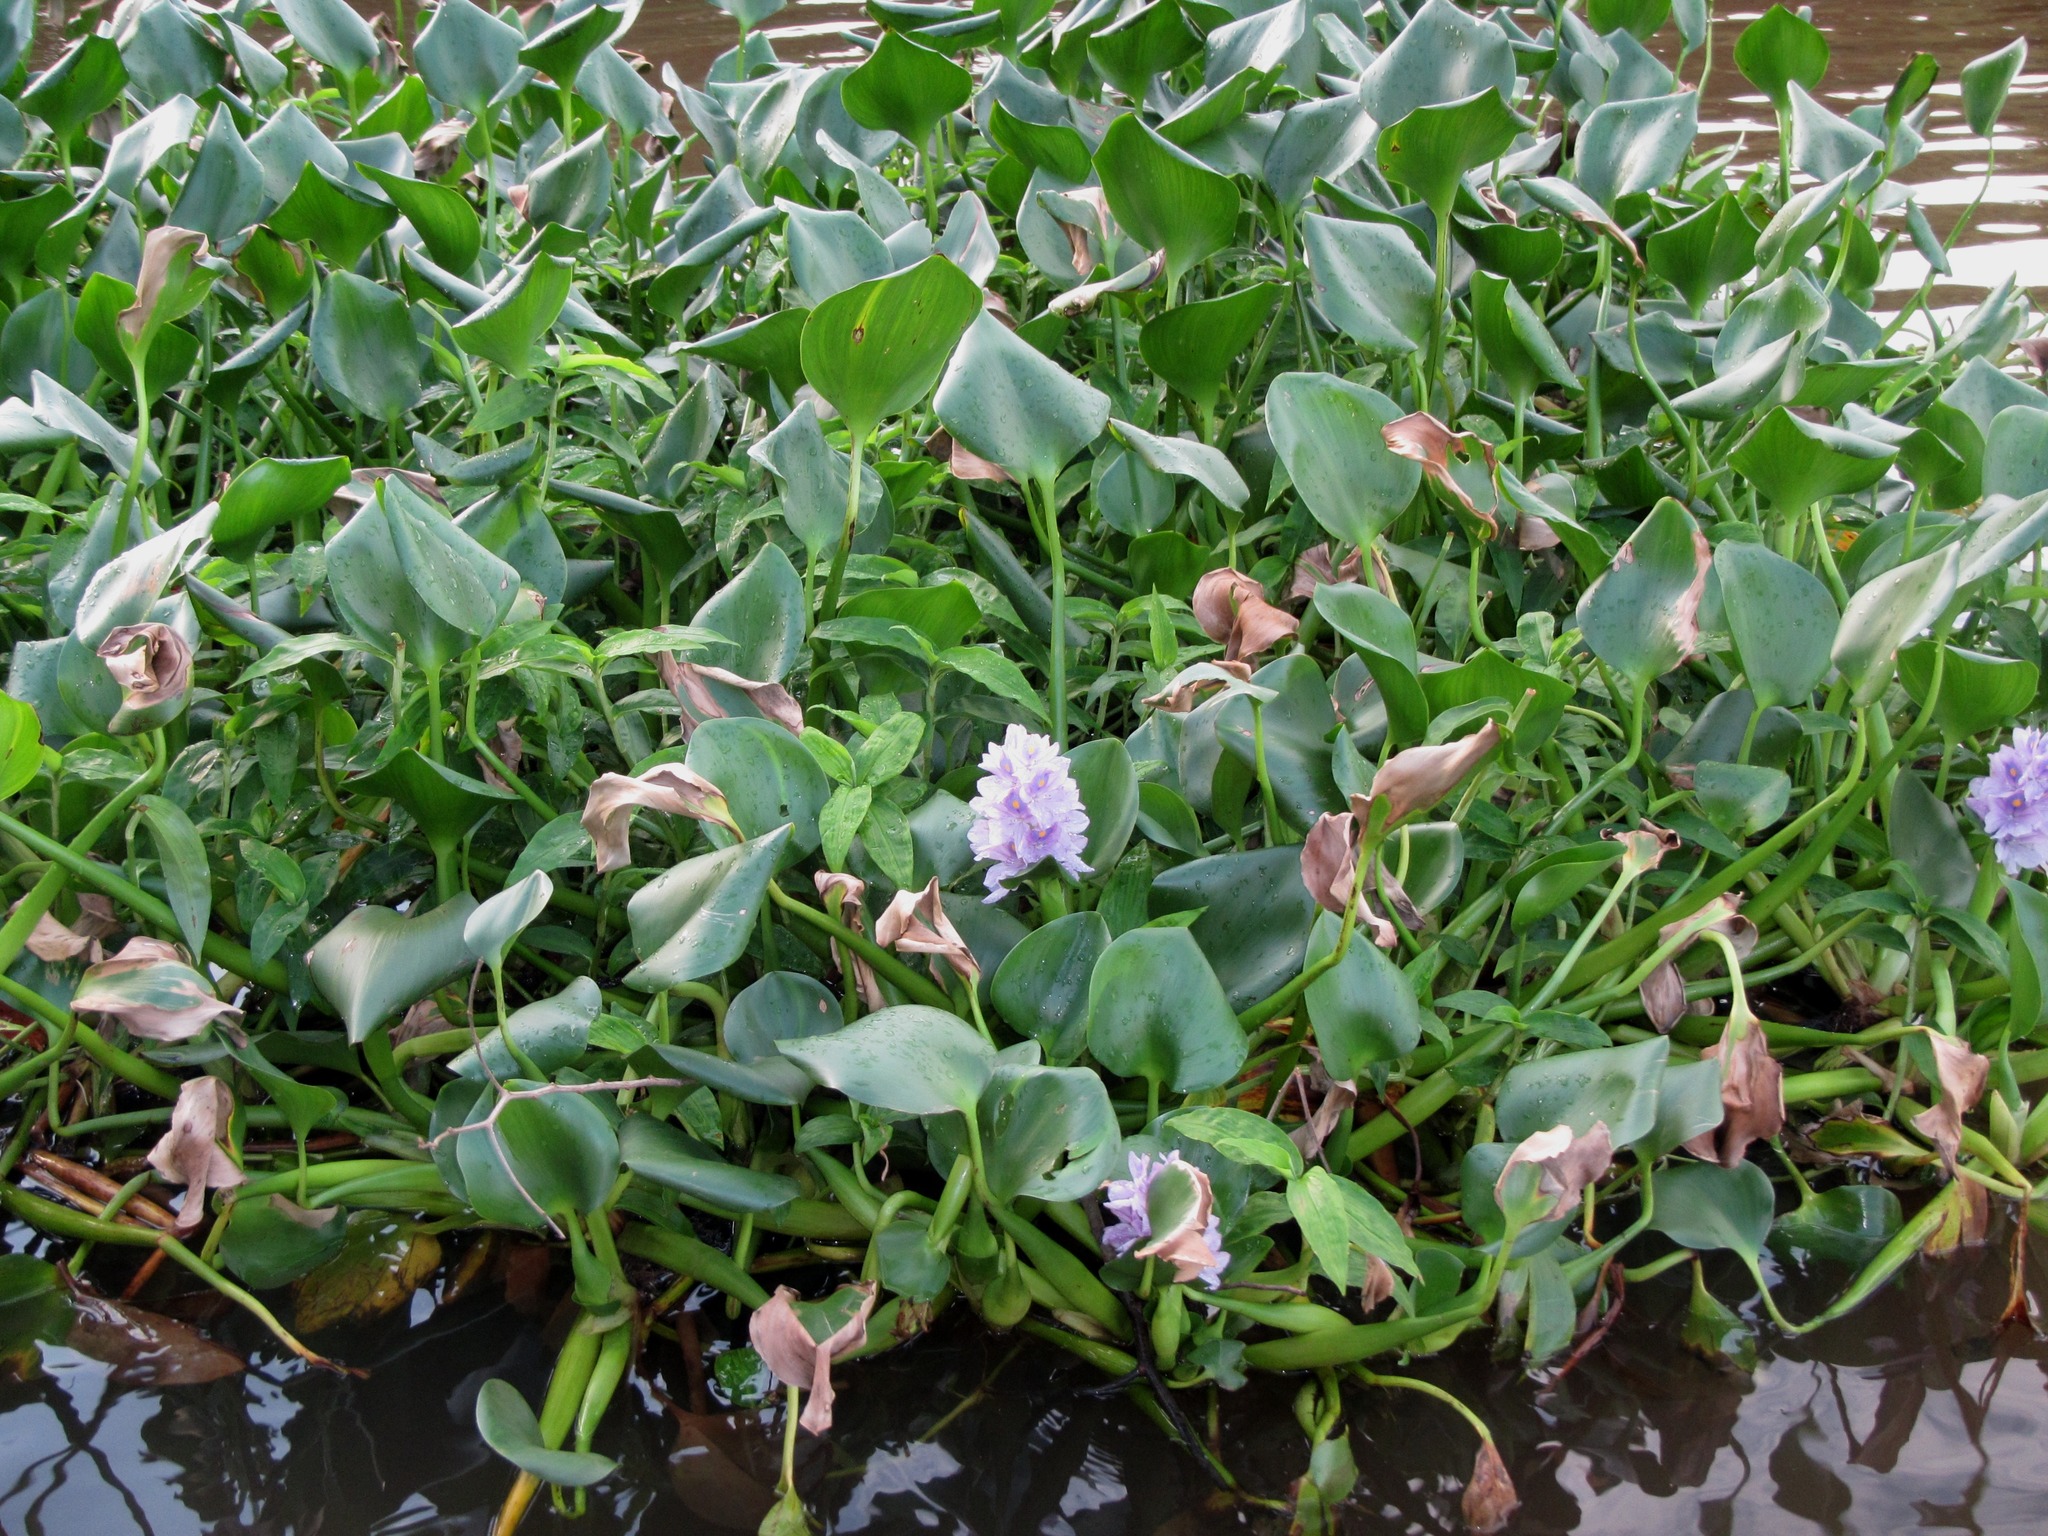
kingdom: Plantae
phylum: Tracheophyta
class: Liliopsida
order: Commelinales
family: Pontederiaceae
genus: Pontederia
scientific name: Pontederia crassipes
